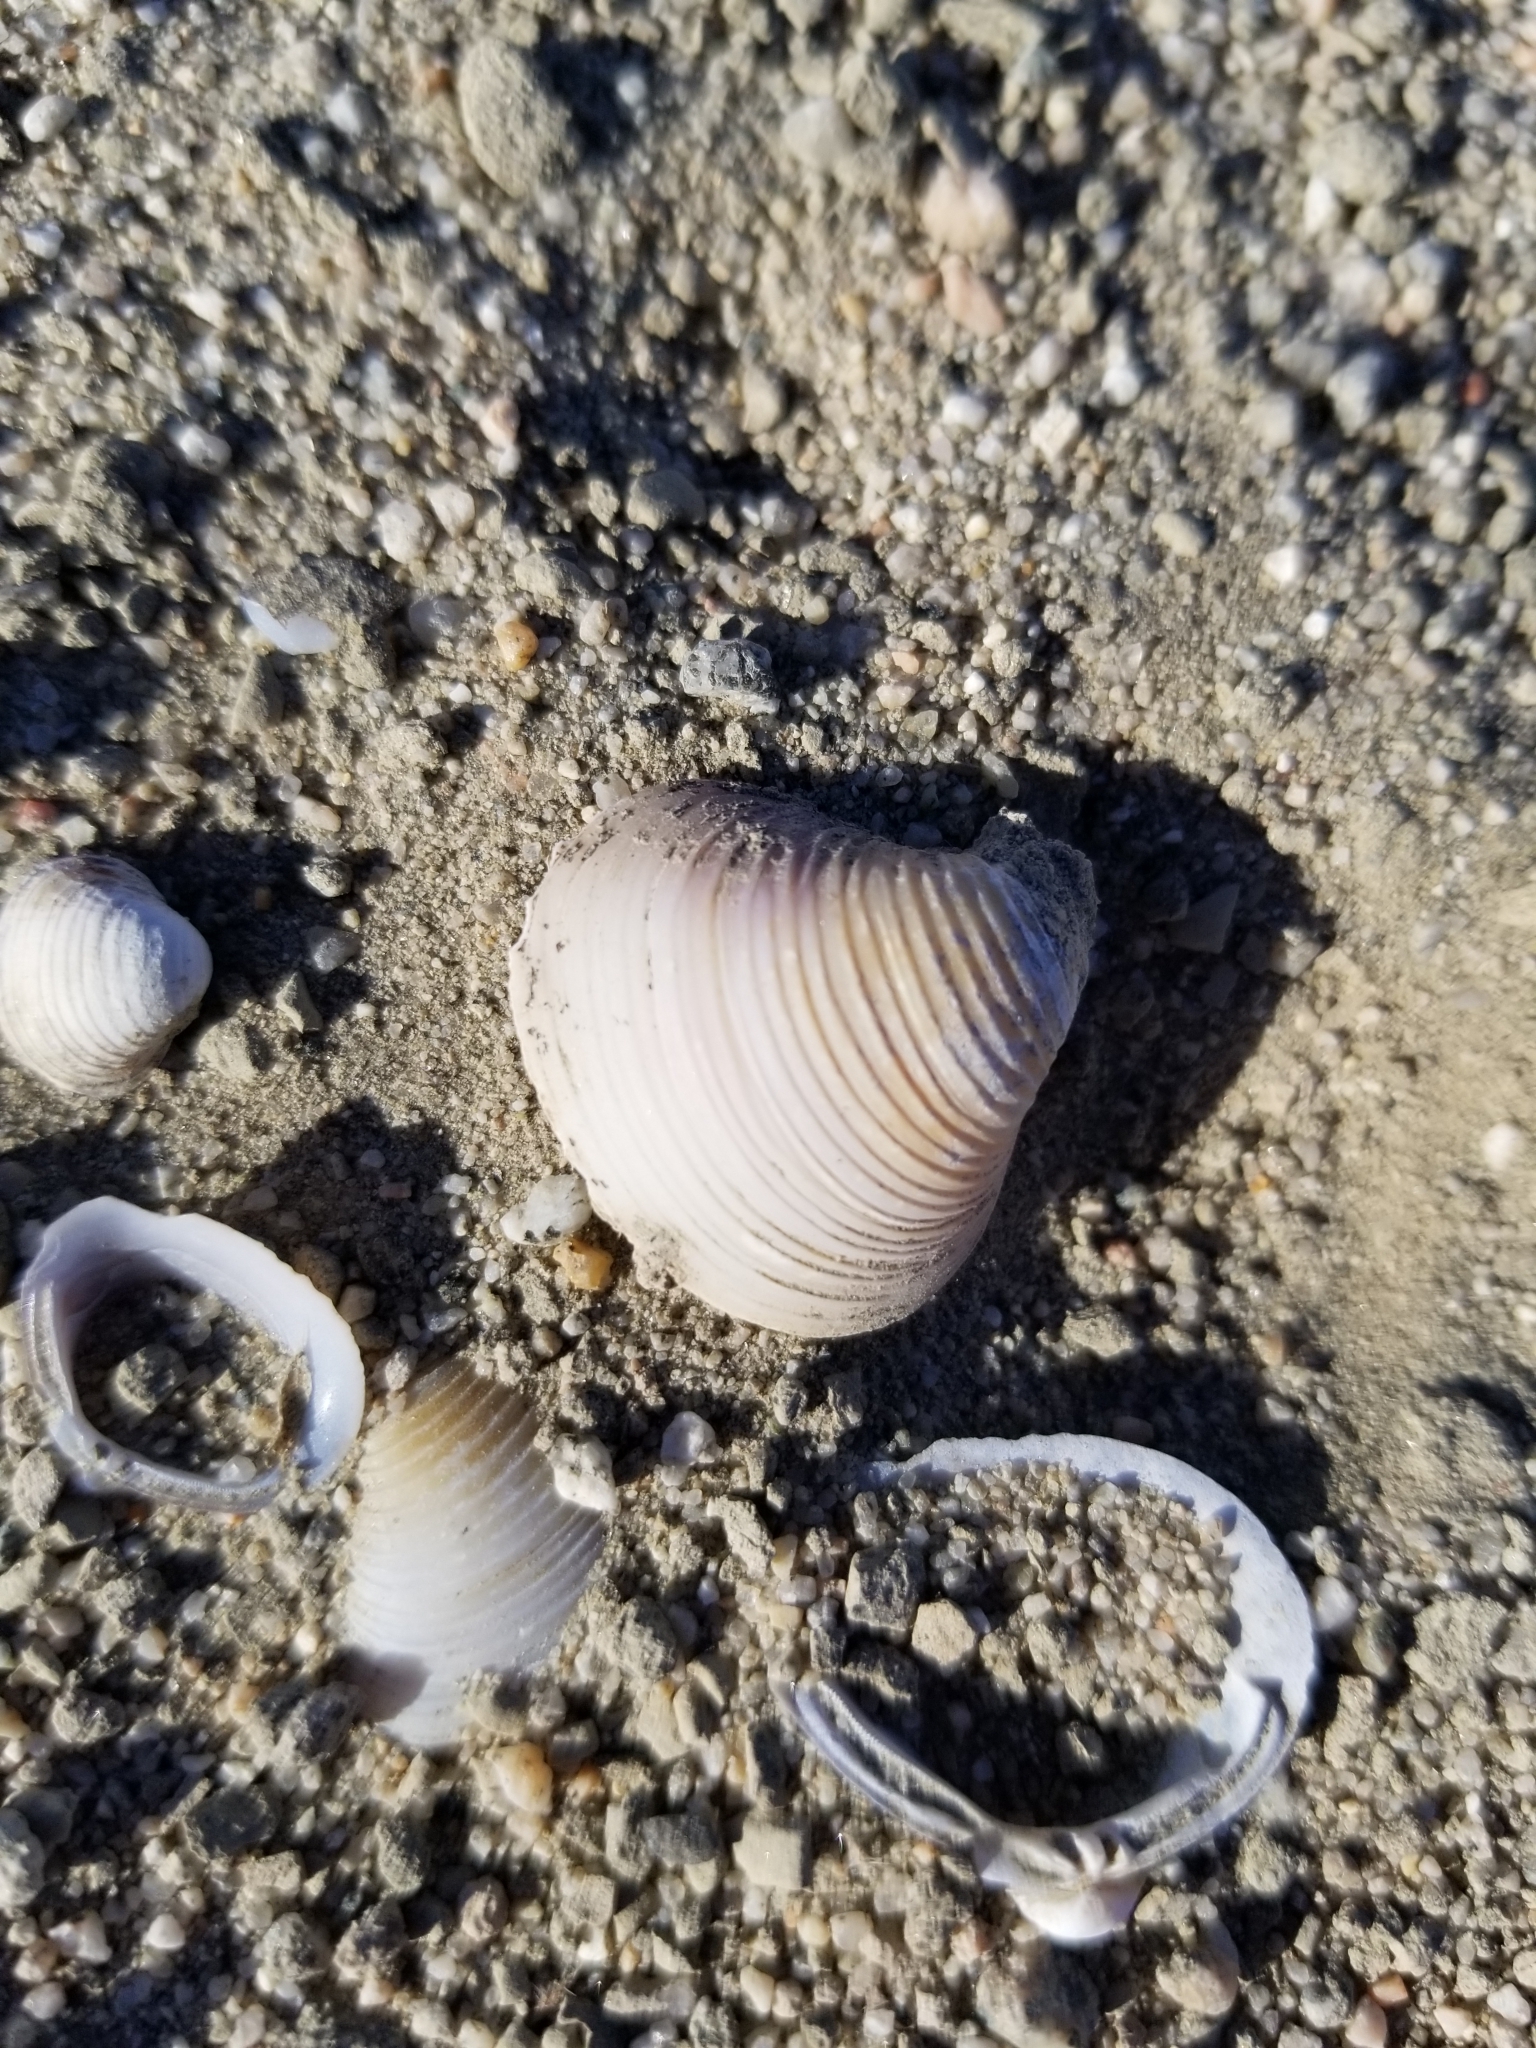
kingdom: Animalia
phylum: Mollusca
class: Bivalvia
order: Venerida
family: Cyrenidae
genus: Corbicula
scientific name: Corbicula fluminea
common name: Asian clam
